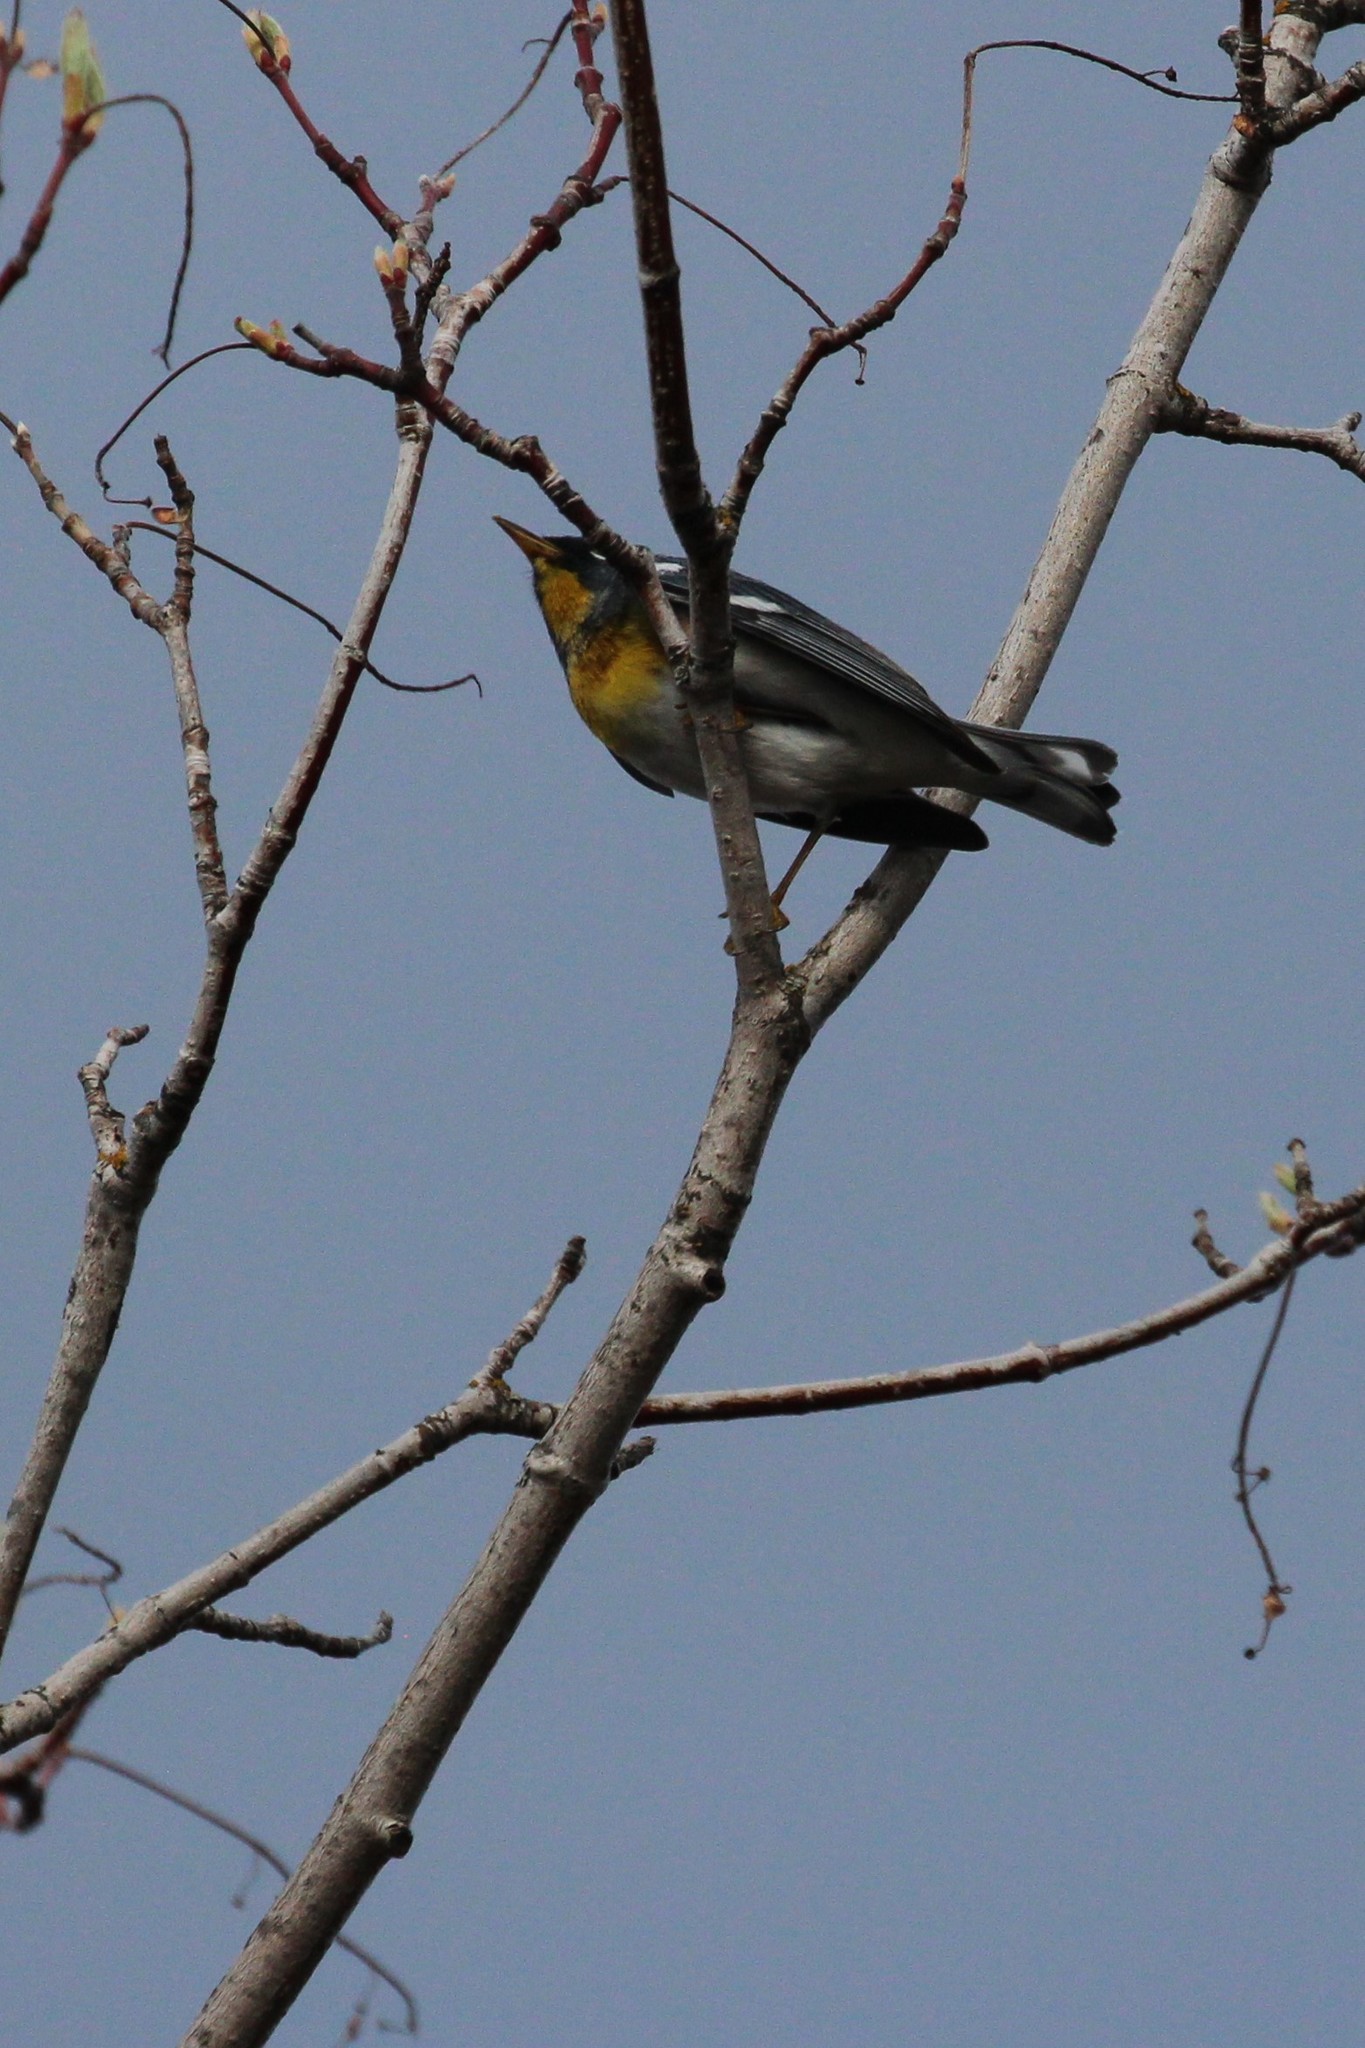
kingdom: Animalia
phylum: Chordata
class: Aves
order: Passeriformes
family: Parulidae
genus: Setophaga
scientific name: Setophaga americana
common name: Northern parula
